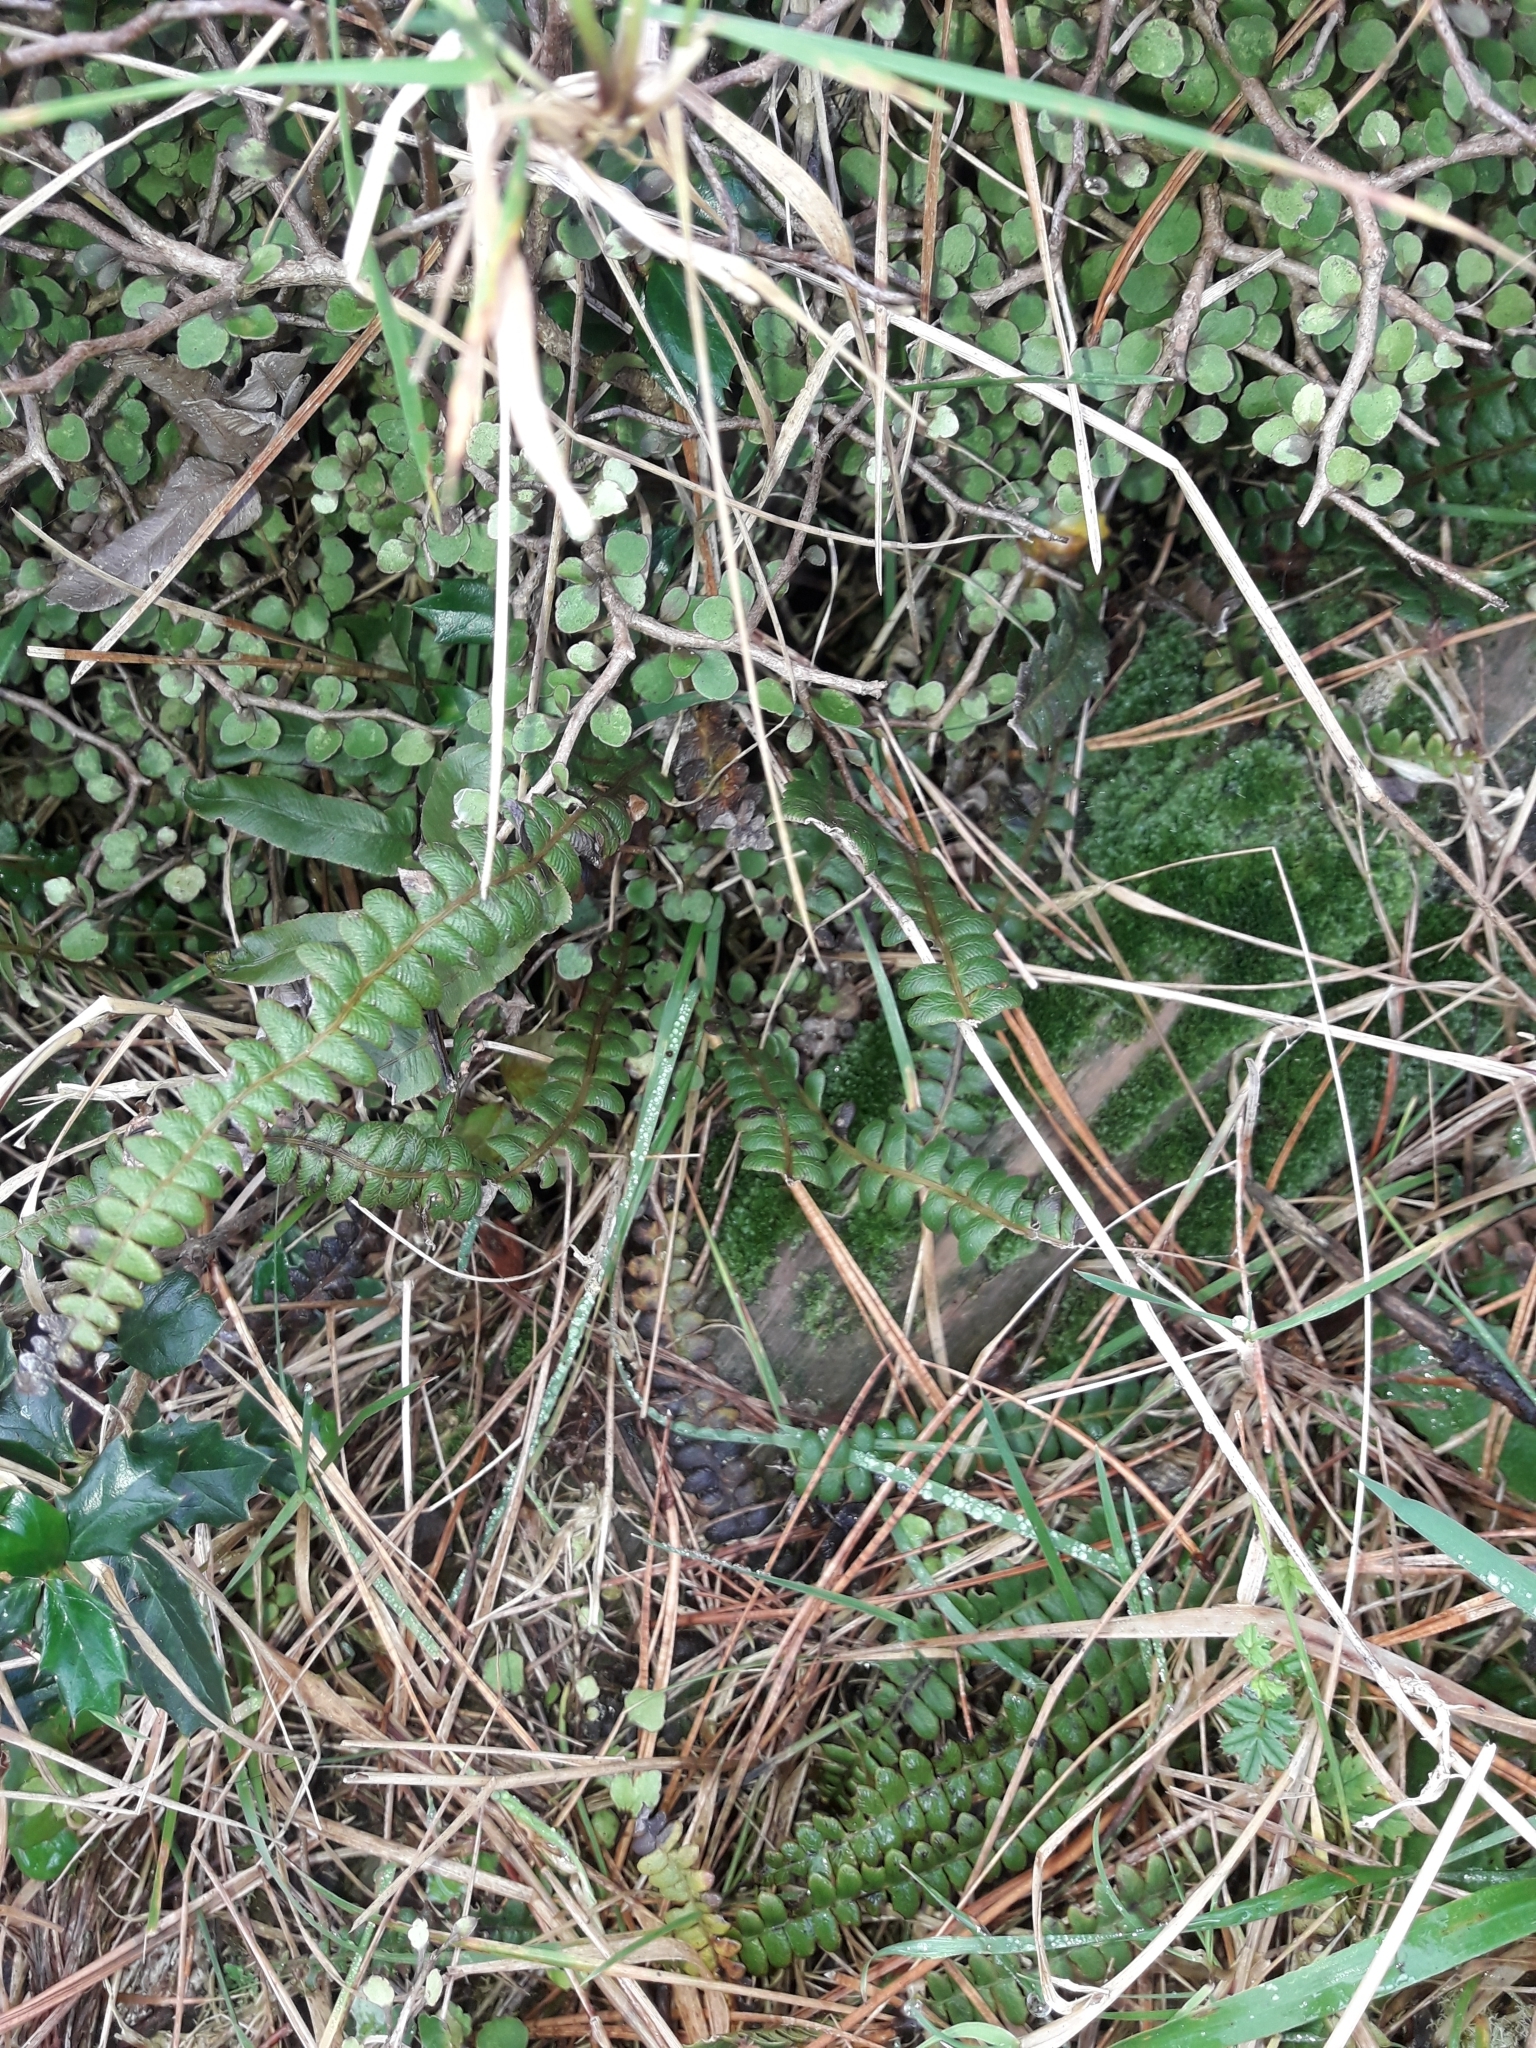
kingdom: Plantae
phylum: Tracheophyta
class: Polypodiopsida
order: Polypodiales
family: Blechnaceae
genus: Austroblechnum
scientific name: Austroblechnum penna-marina
